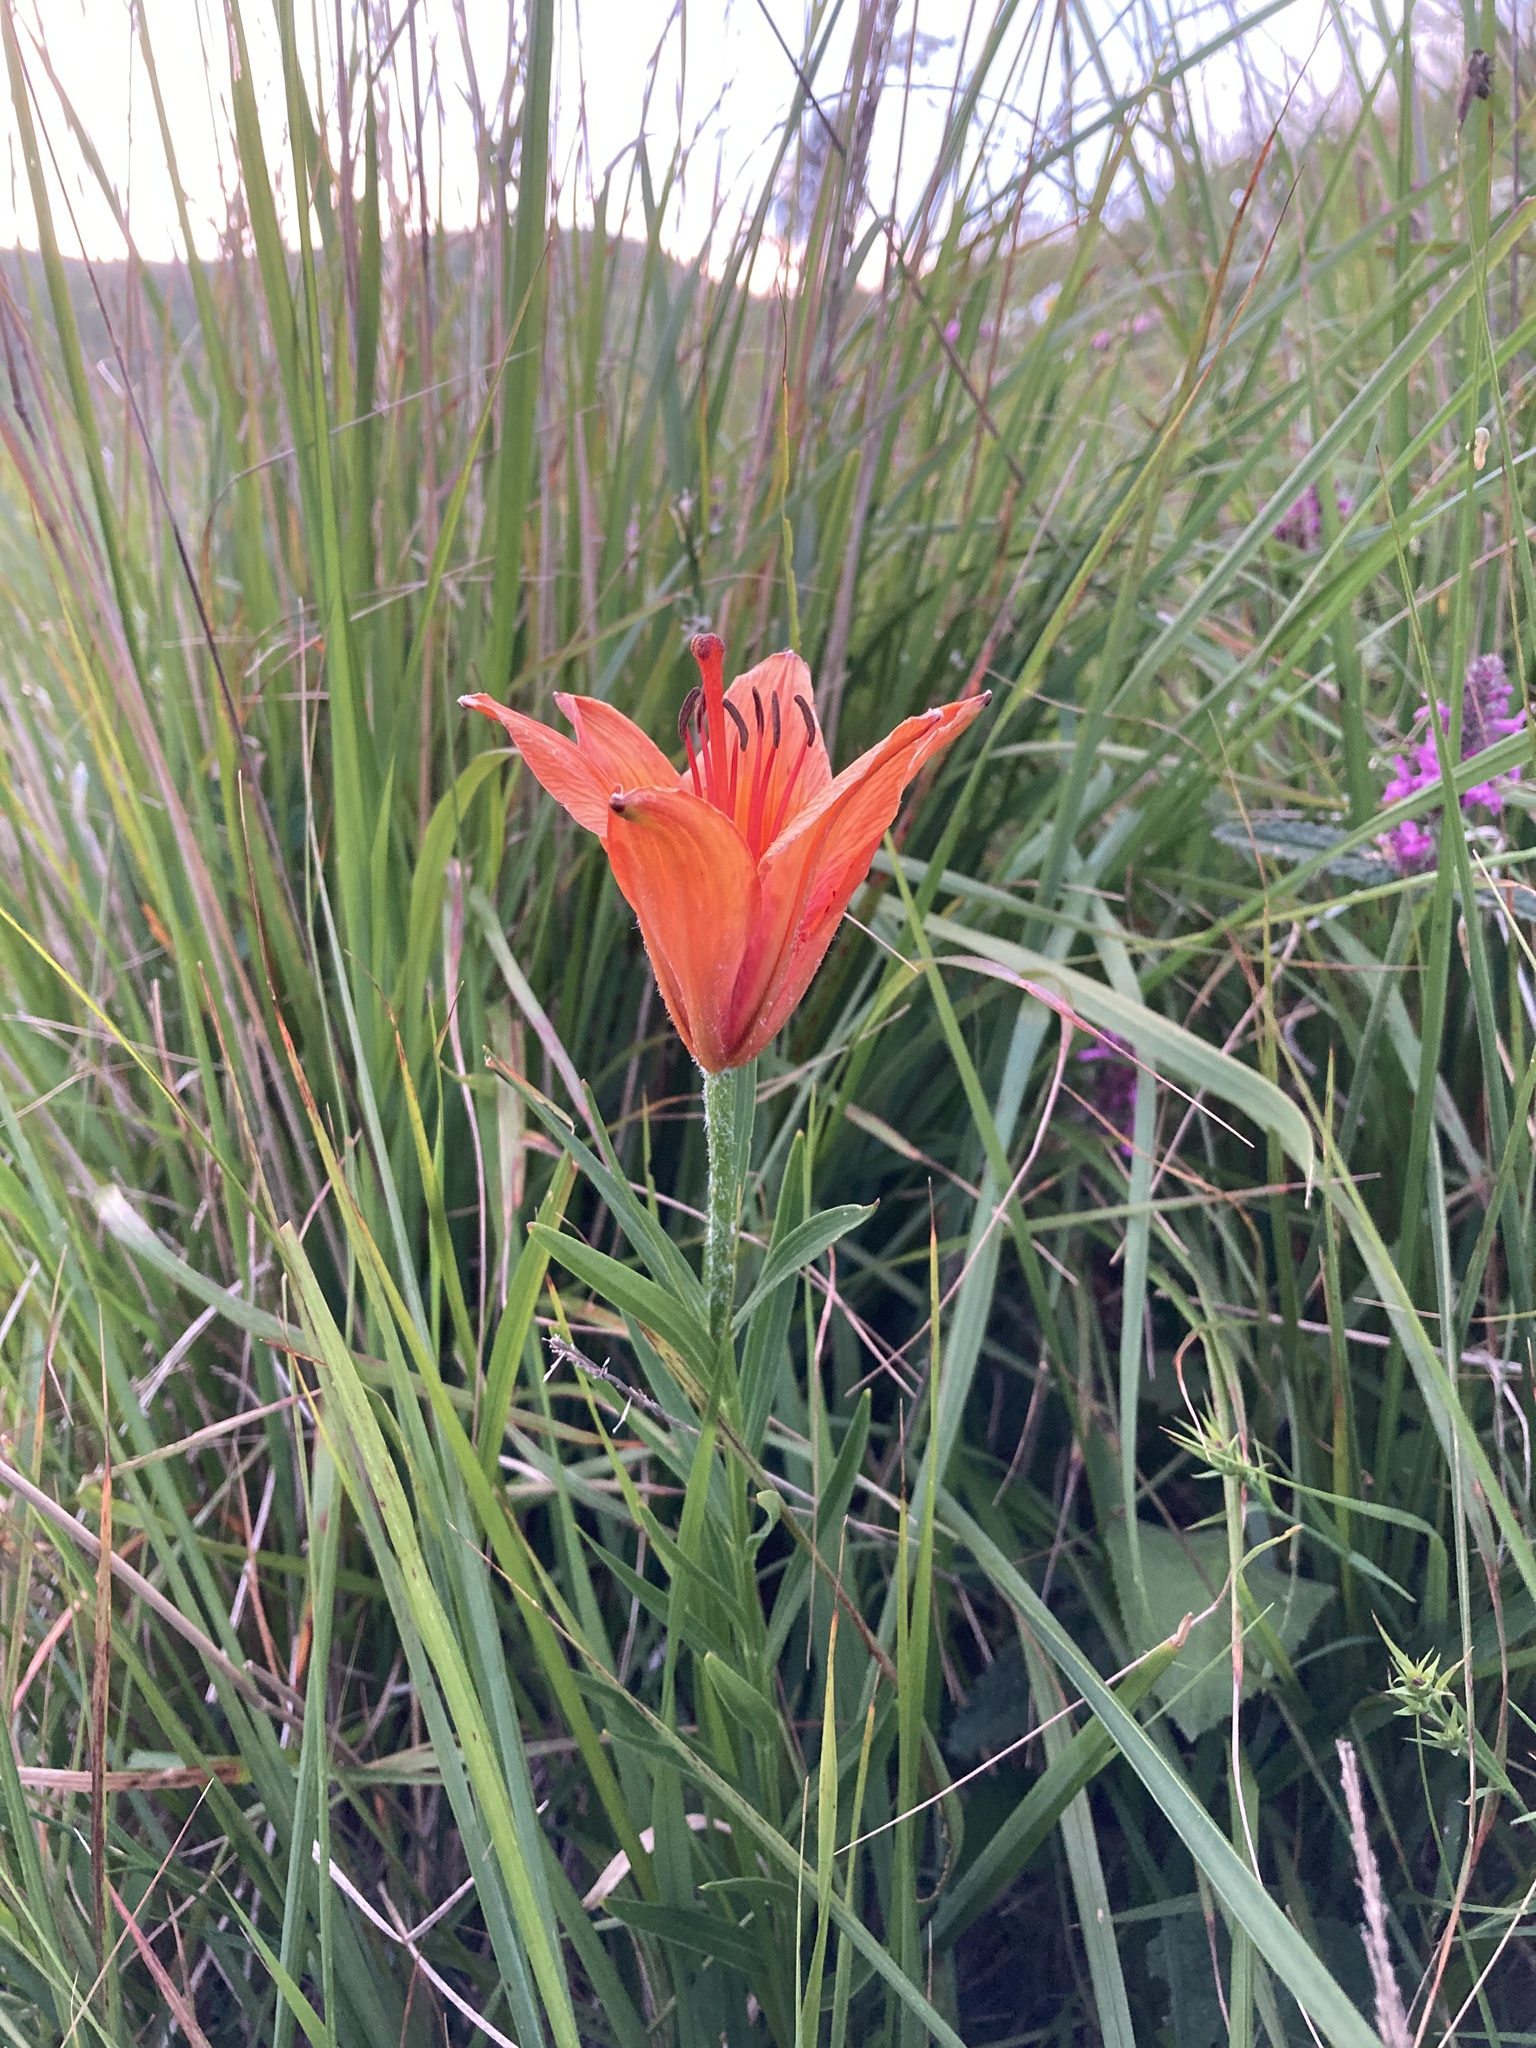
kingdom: Plantae
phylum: Tracheophyta
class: Liliopsida
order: Liliales
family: Liliaceae
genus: Lilium
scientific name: Lilium bulbiferum
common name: Orange lily
